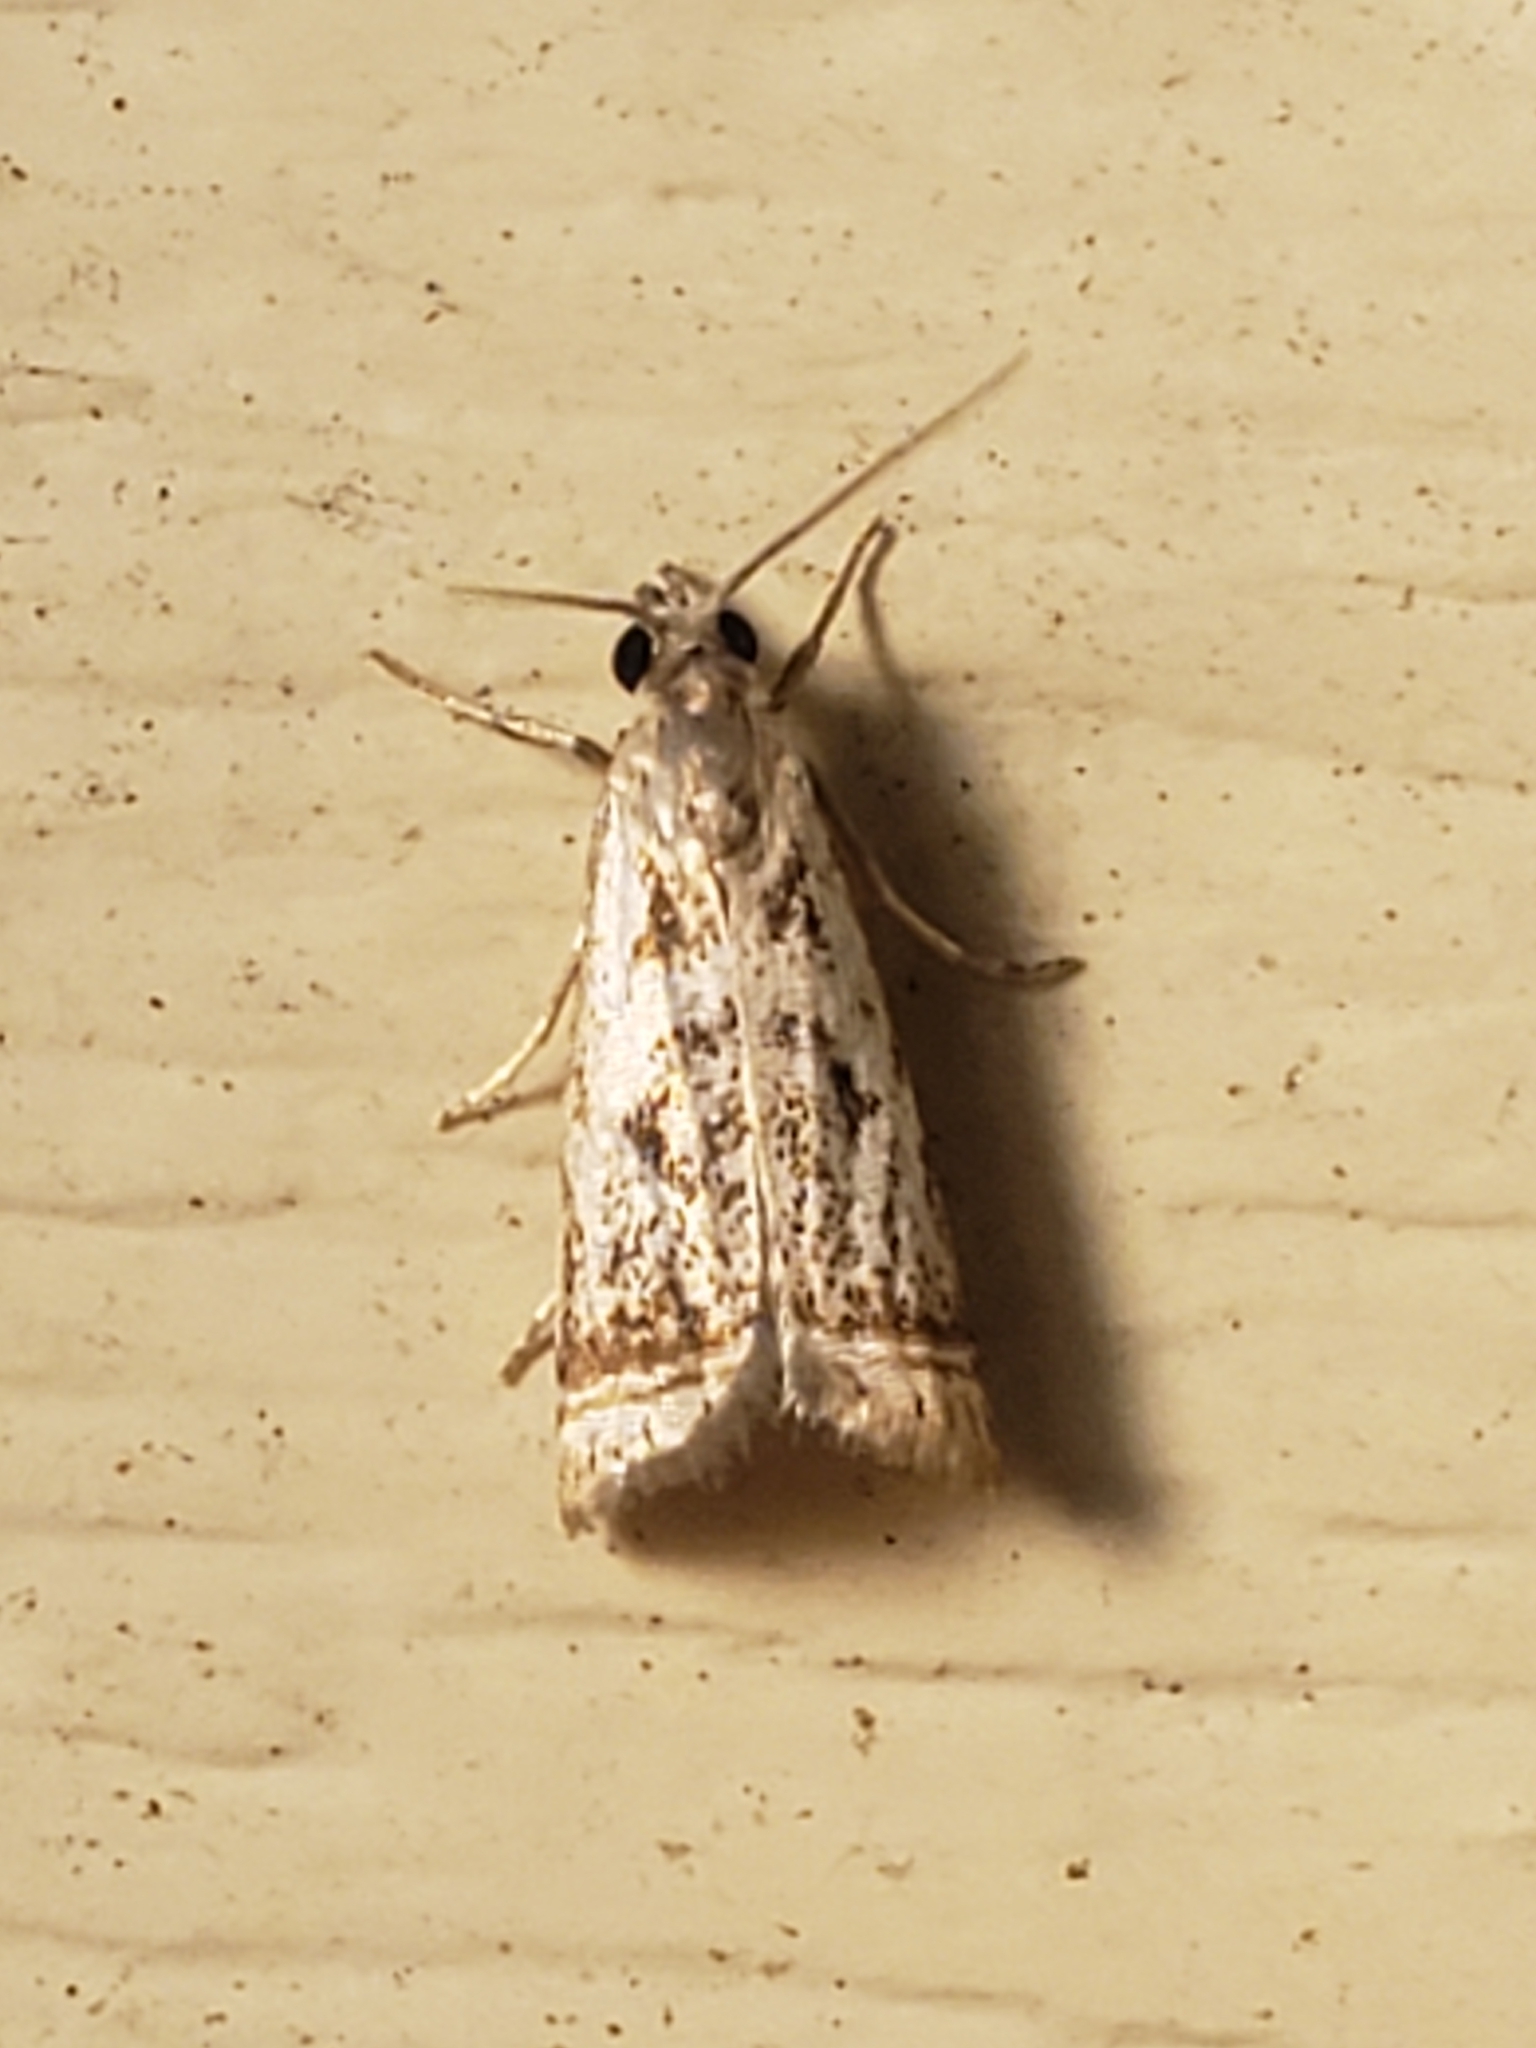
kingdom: Animalia
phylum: Arthropoda
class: Insecta
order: Lepidoptera
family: Crambidae
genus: Microcrambus
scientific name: Microcrambus elegans
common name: Elegant grass-veneer
